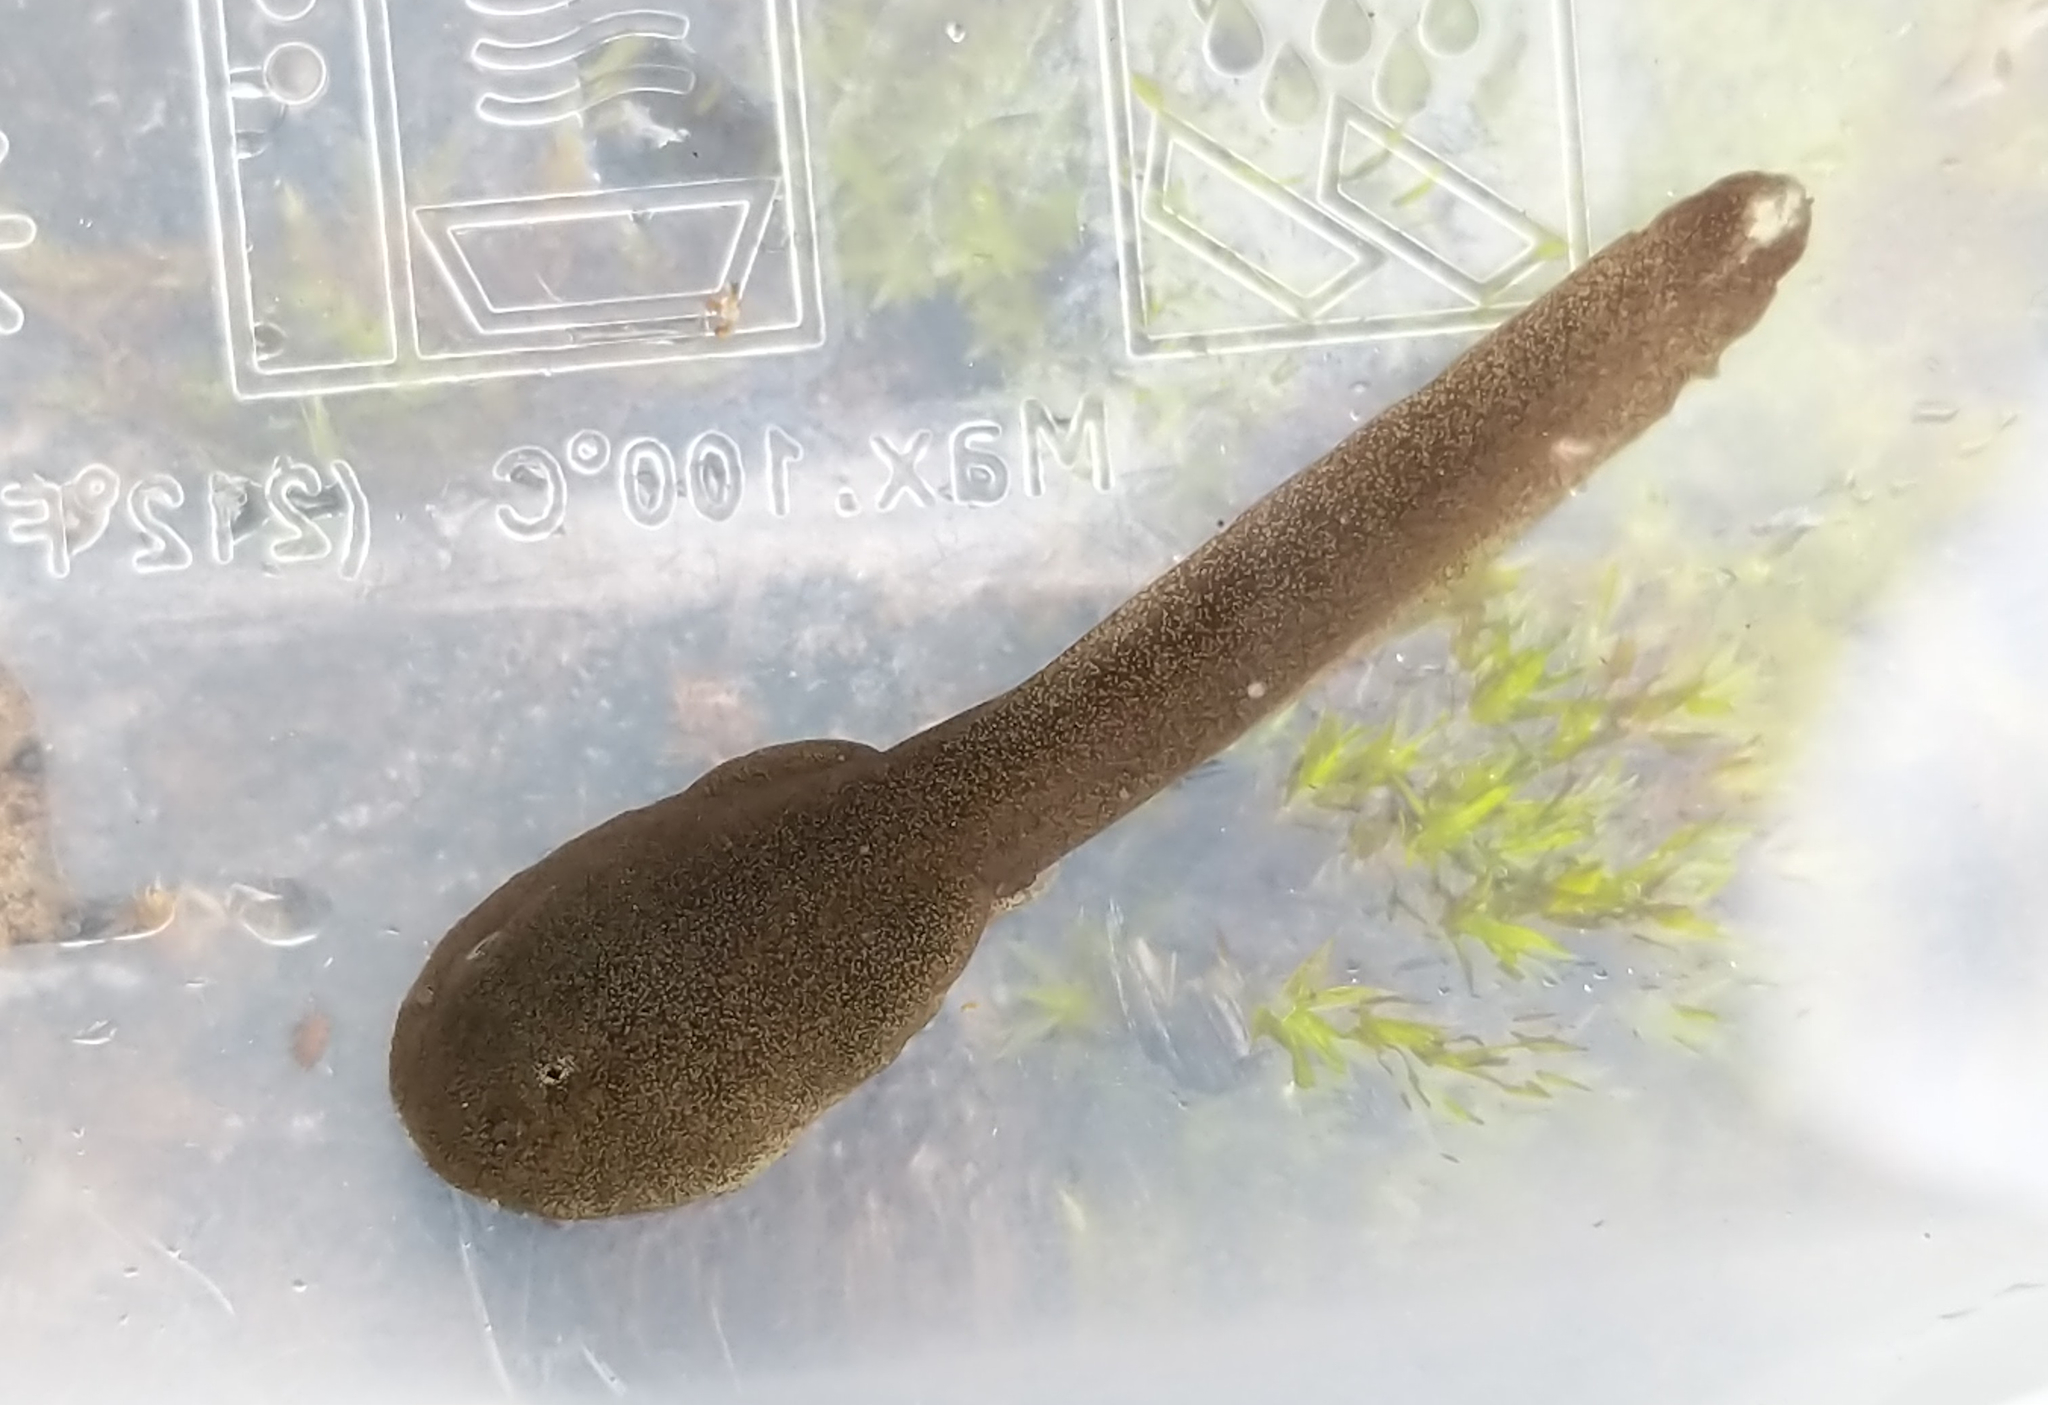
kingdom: Animalia
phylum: Chordata
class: Amphibia
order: Anura
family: Ascaphidae
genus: Ascaphus
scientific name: Ascaphus truei
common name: Tailed frog
